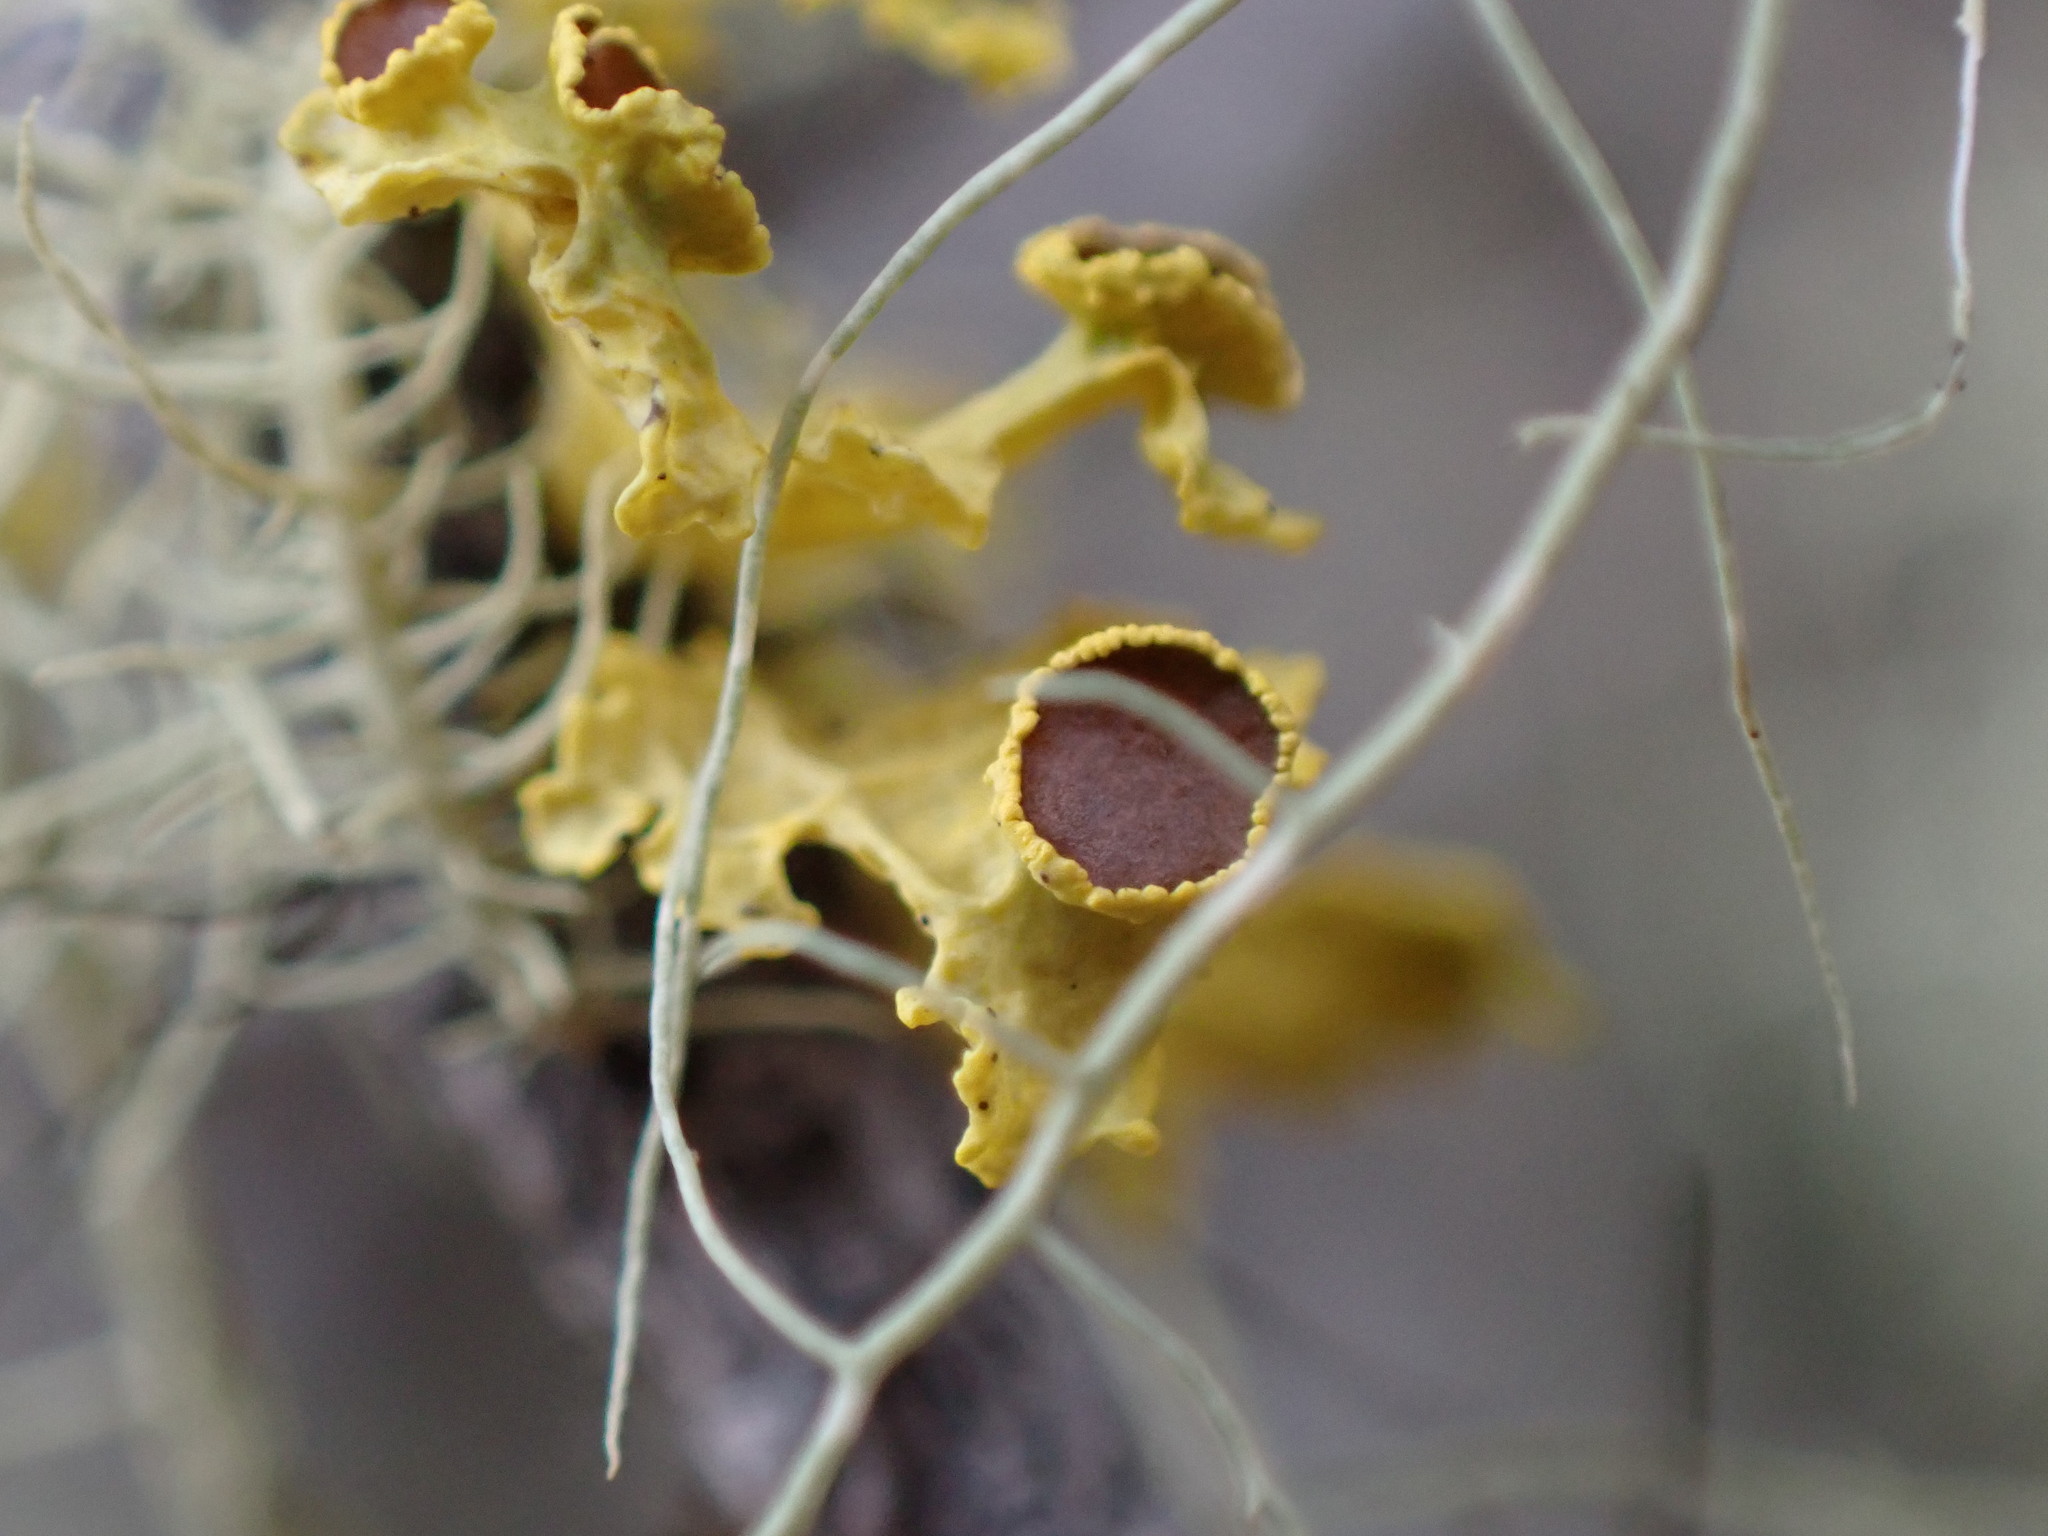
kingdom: Fungi
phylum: Ascomycota
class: Lecanoromycetes
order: Lecanorales
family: Parmeliaceae
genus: Vulpicida
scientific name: Vulpicida canadensis
